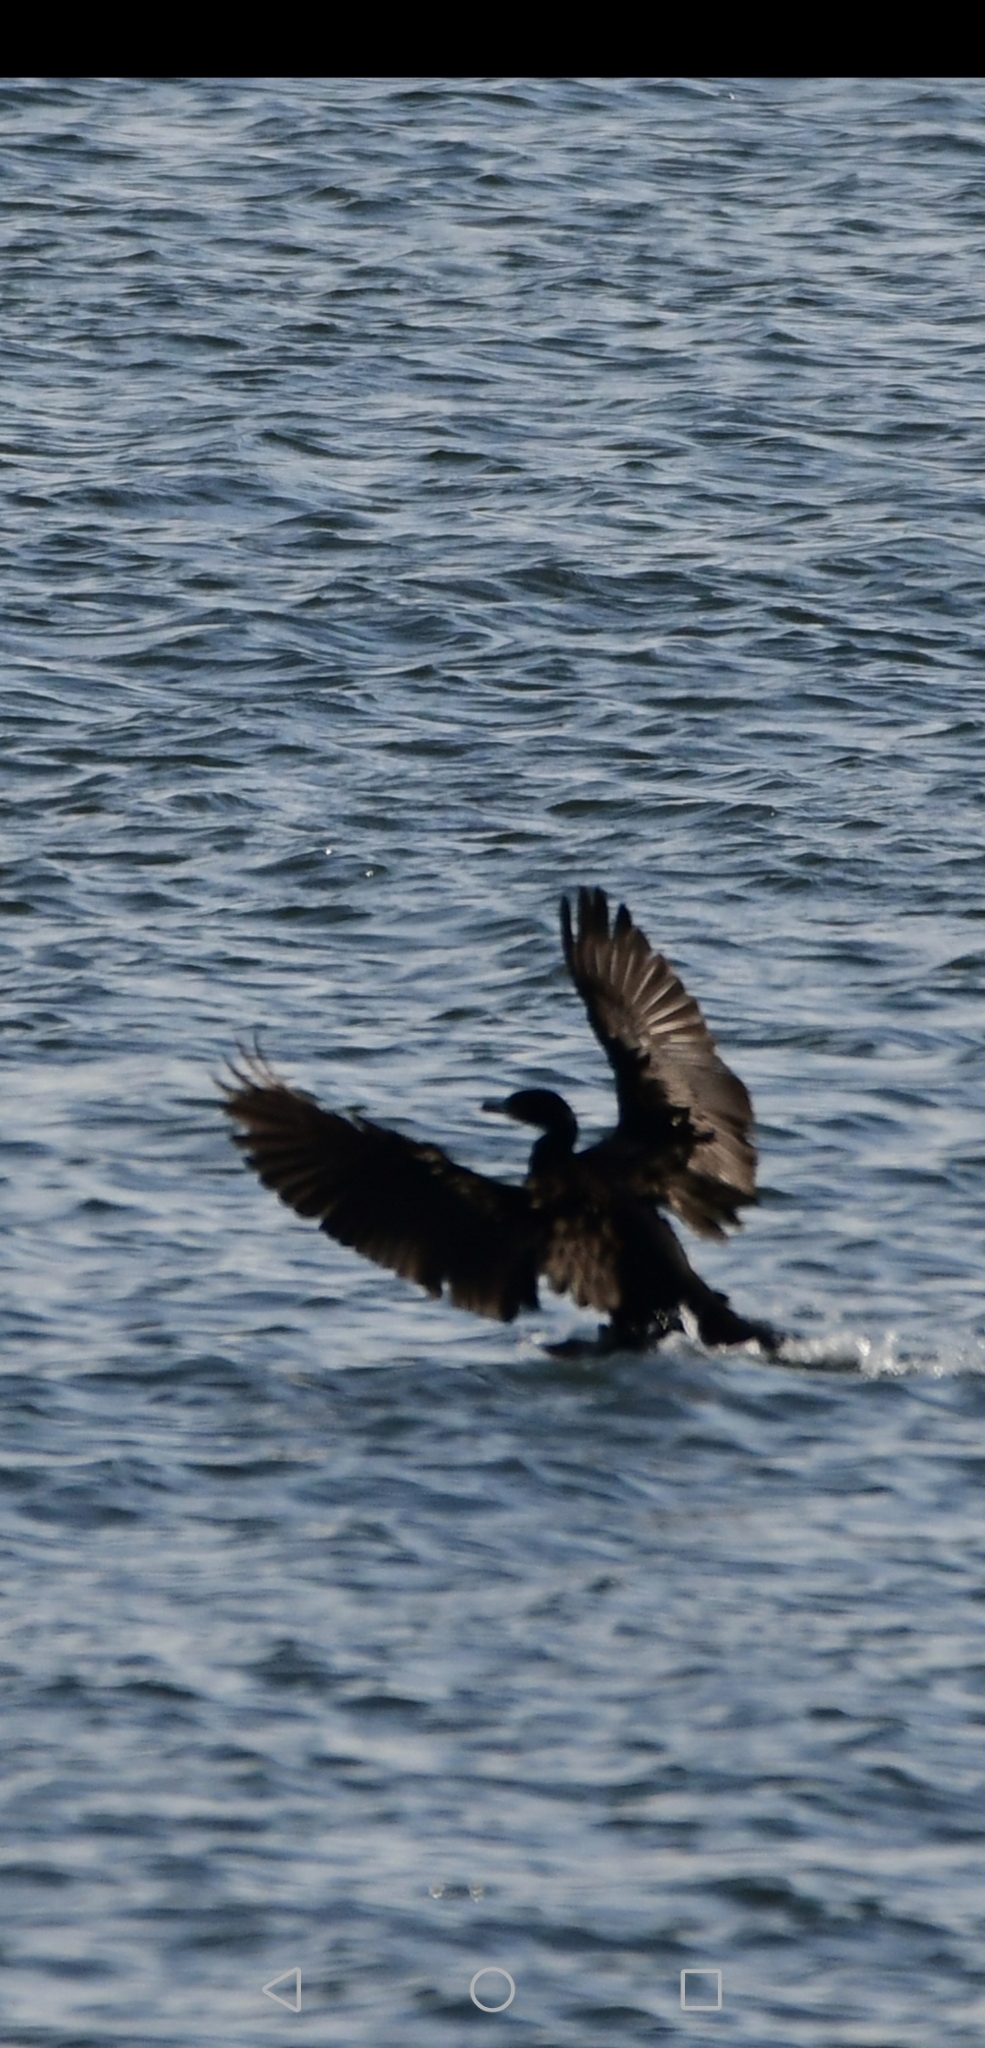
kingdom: Animalia
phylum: Chordata
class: Aves
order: Suliformes
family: Phalacrocoracidae
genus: Phalacrocorax
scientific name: Phalacrocorax auritus
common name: Double-crested cormorant
